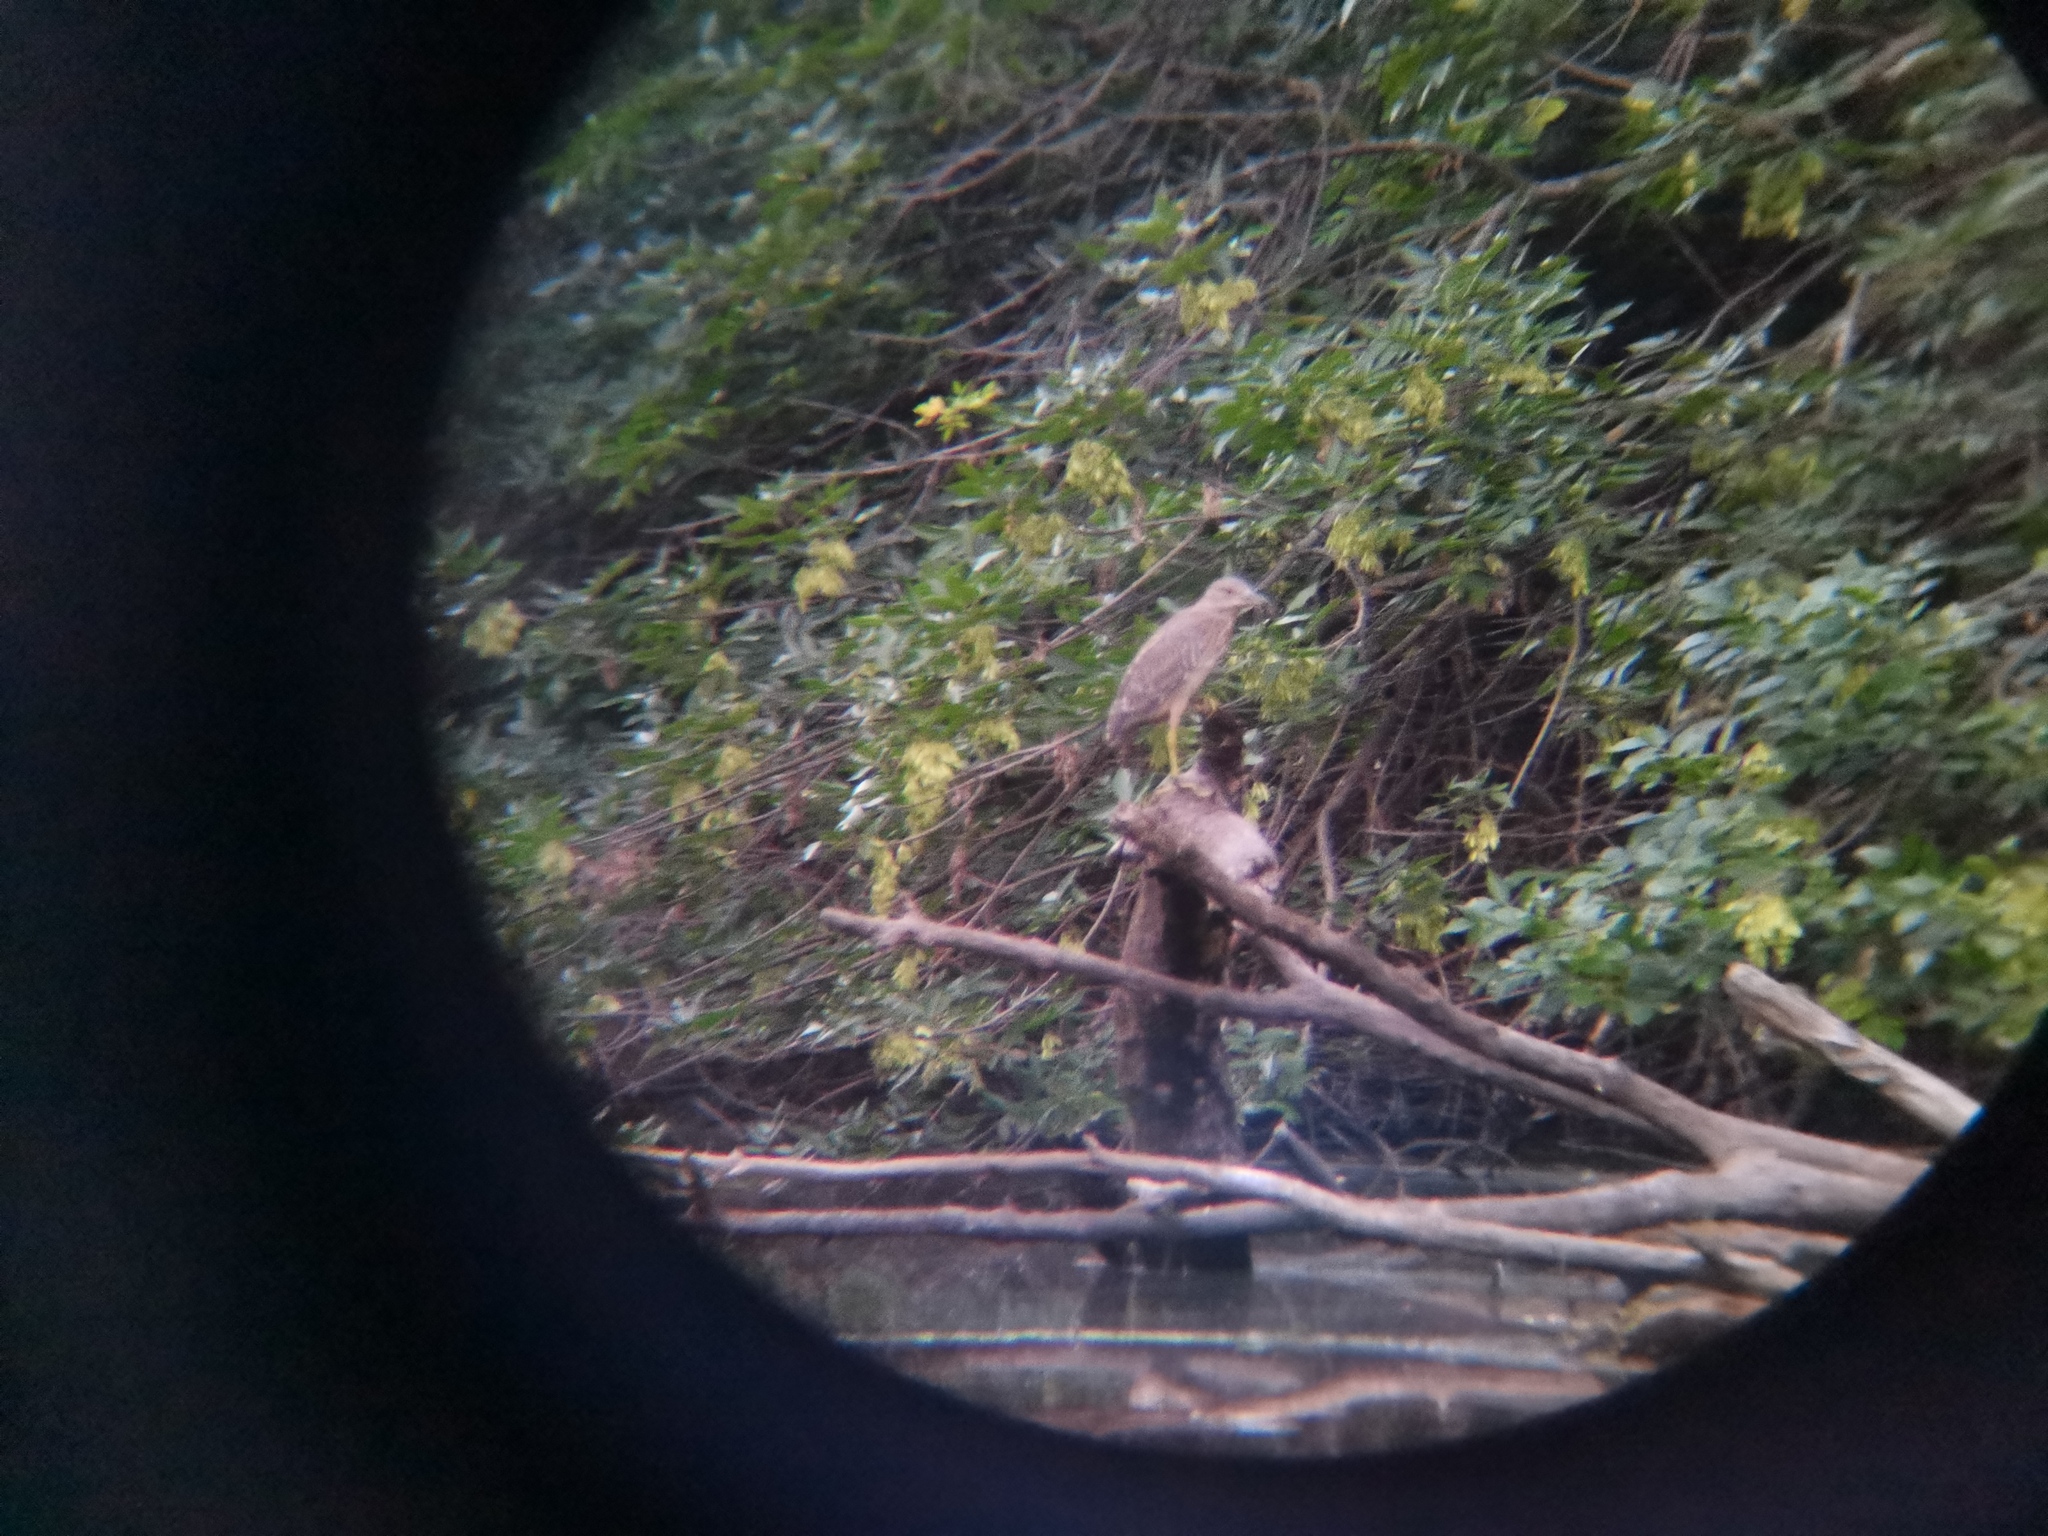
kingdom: Animalia
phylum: Chordata
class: Aves
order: Pelecaniformes
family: Ardeidae
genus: Nycticorax
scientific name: Nycticorax nycticorax
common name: Black-crowned night heron
